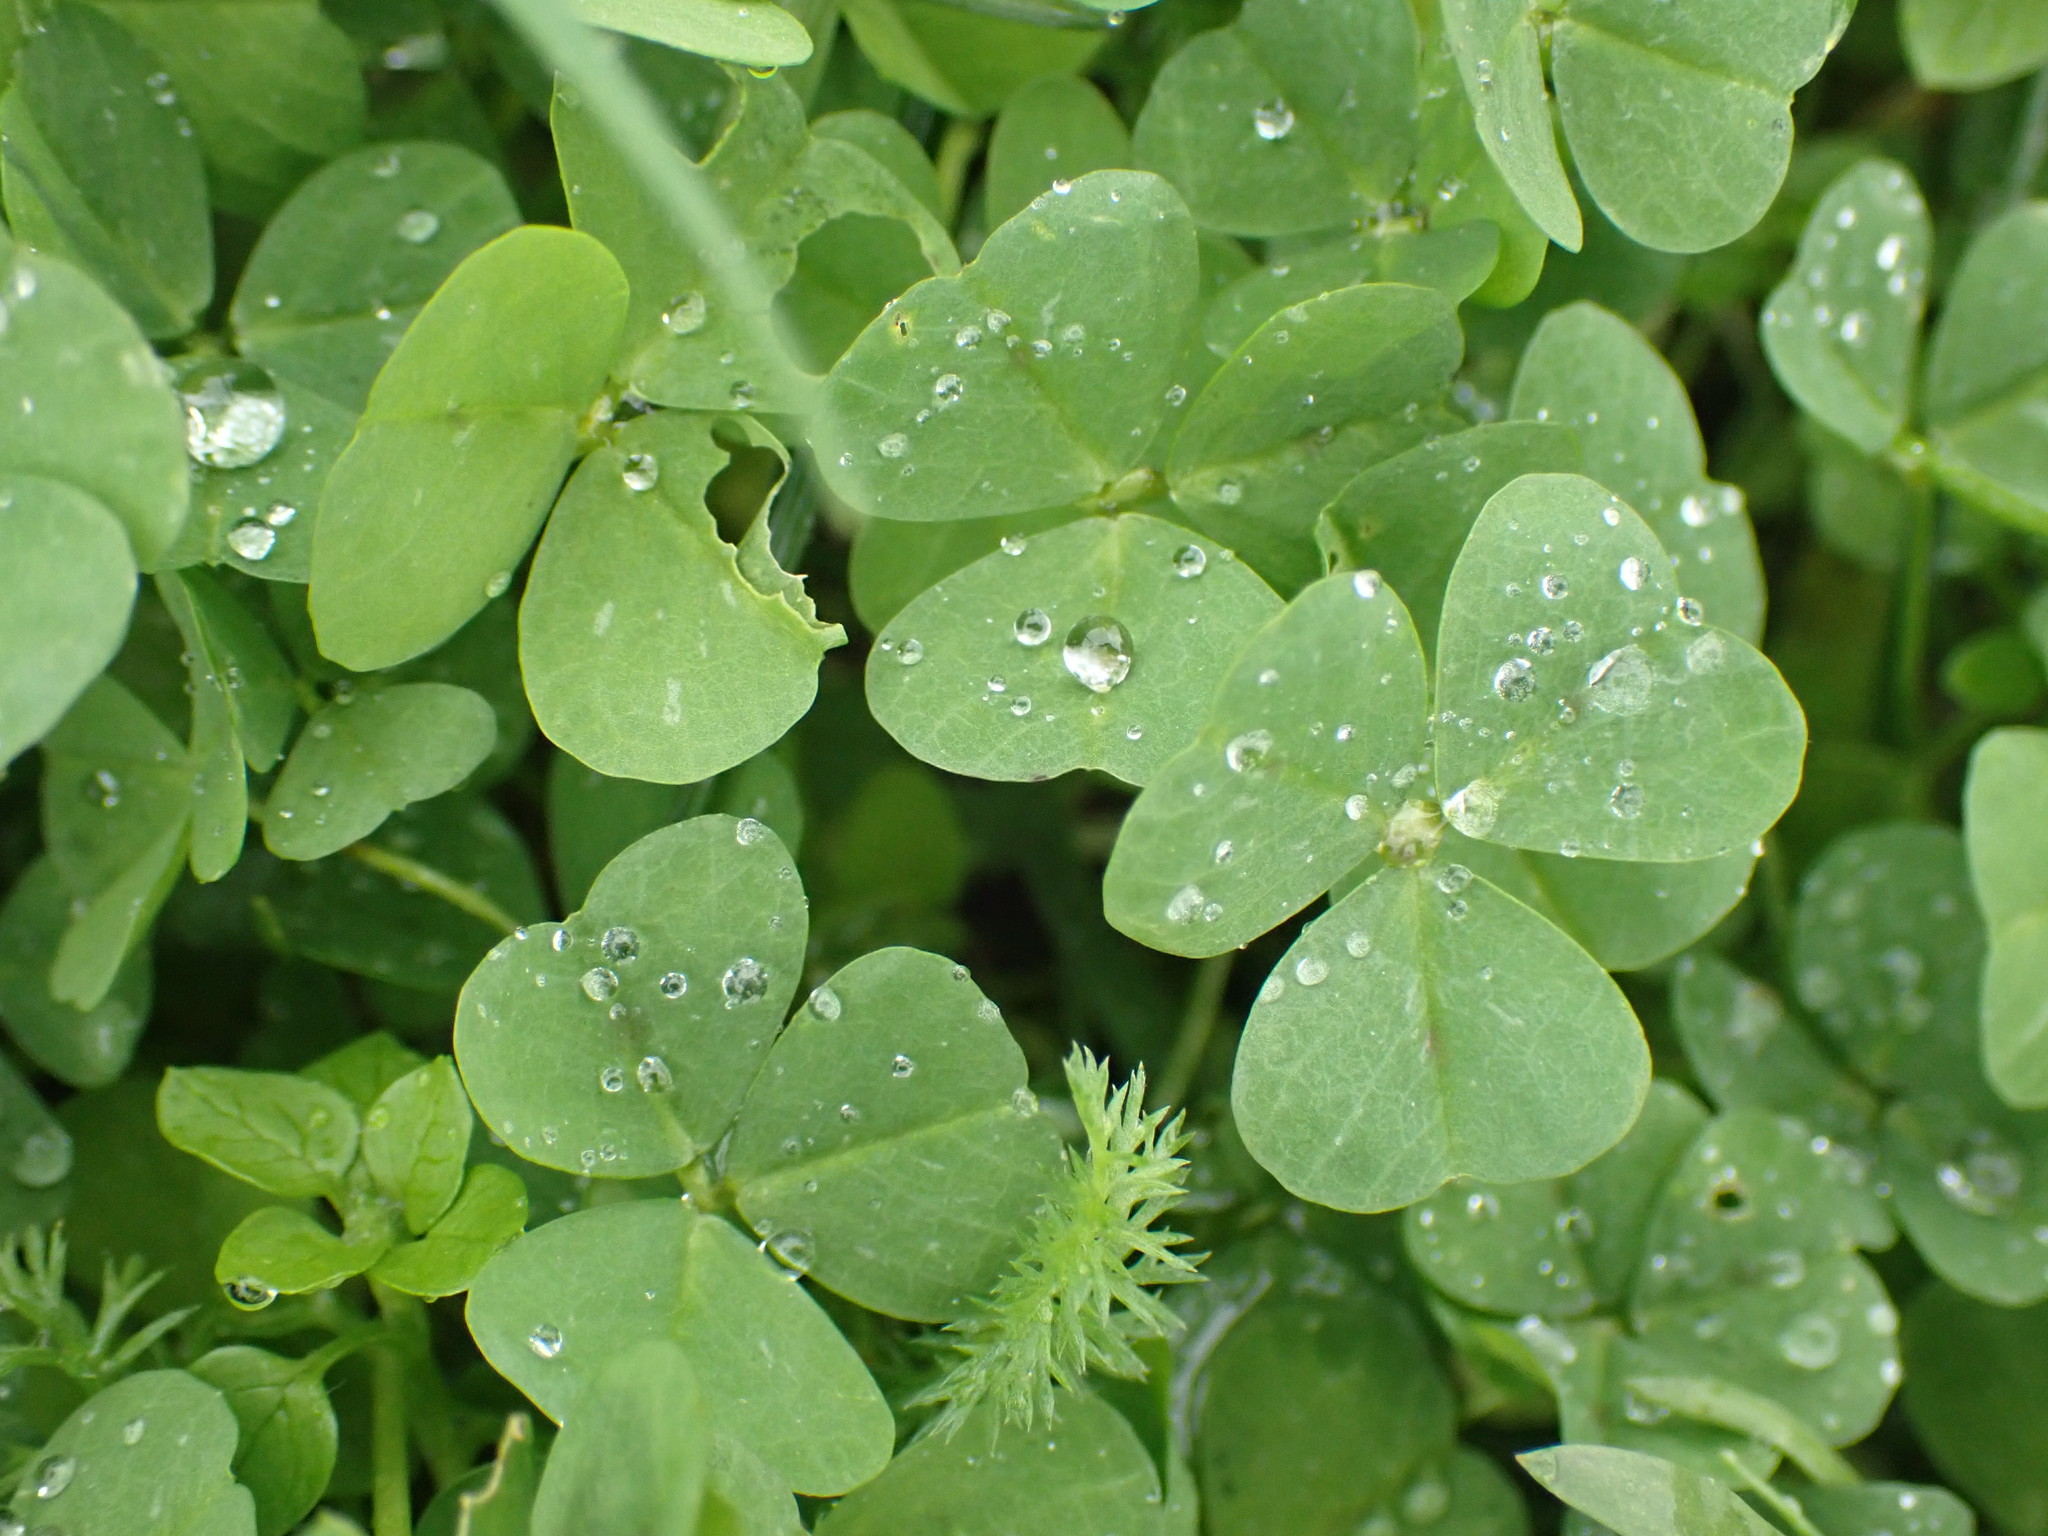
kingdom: Plantae
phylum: Tracheophyta
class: Magnoliopsida
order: Fabales
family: Fabaceae
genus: Medicago
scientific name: Medicago arabica
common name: Spotted medick
